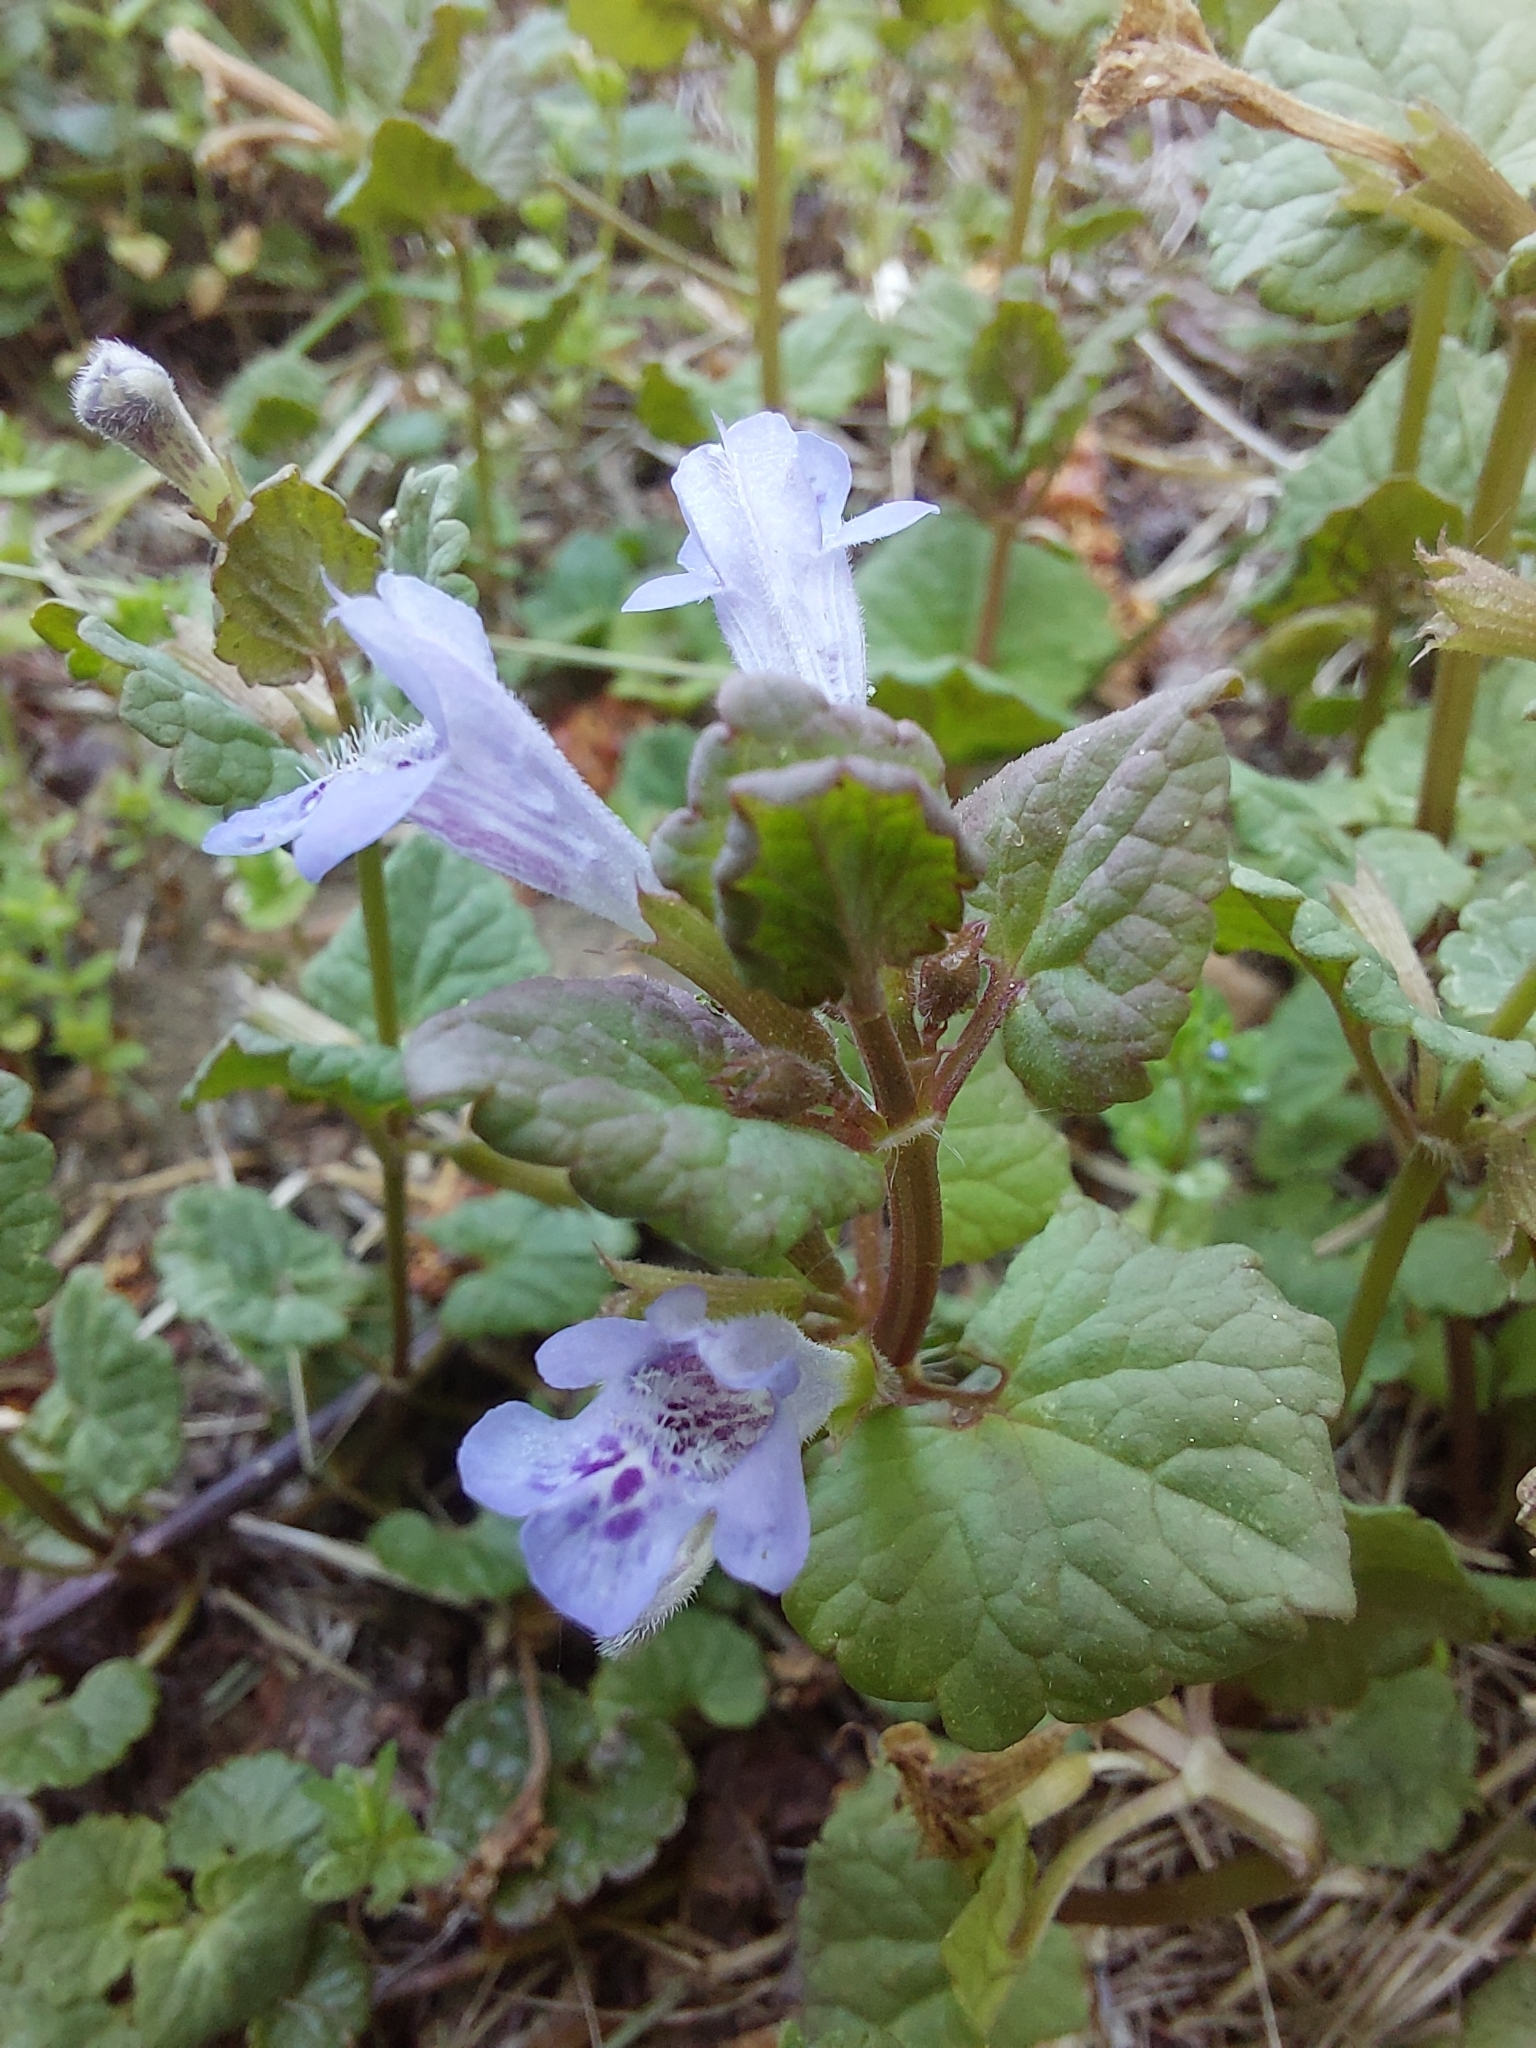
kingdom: Plantae
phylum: Tracheophyta
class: Magnoliopsida
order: Lamiales
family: Lamiaceae
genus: Glechoma
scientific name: Glechoma hederacea
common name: Ground ivy
